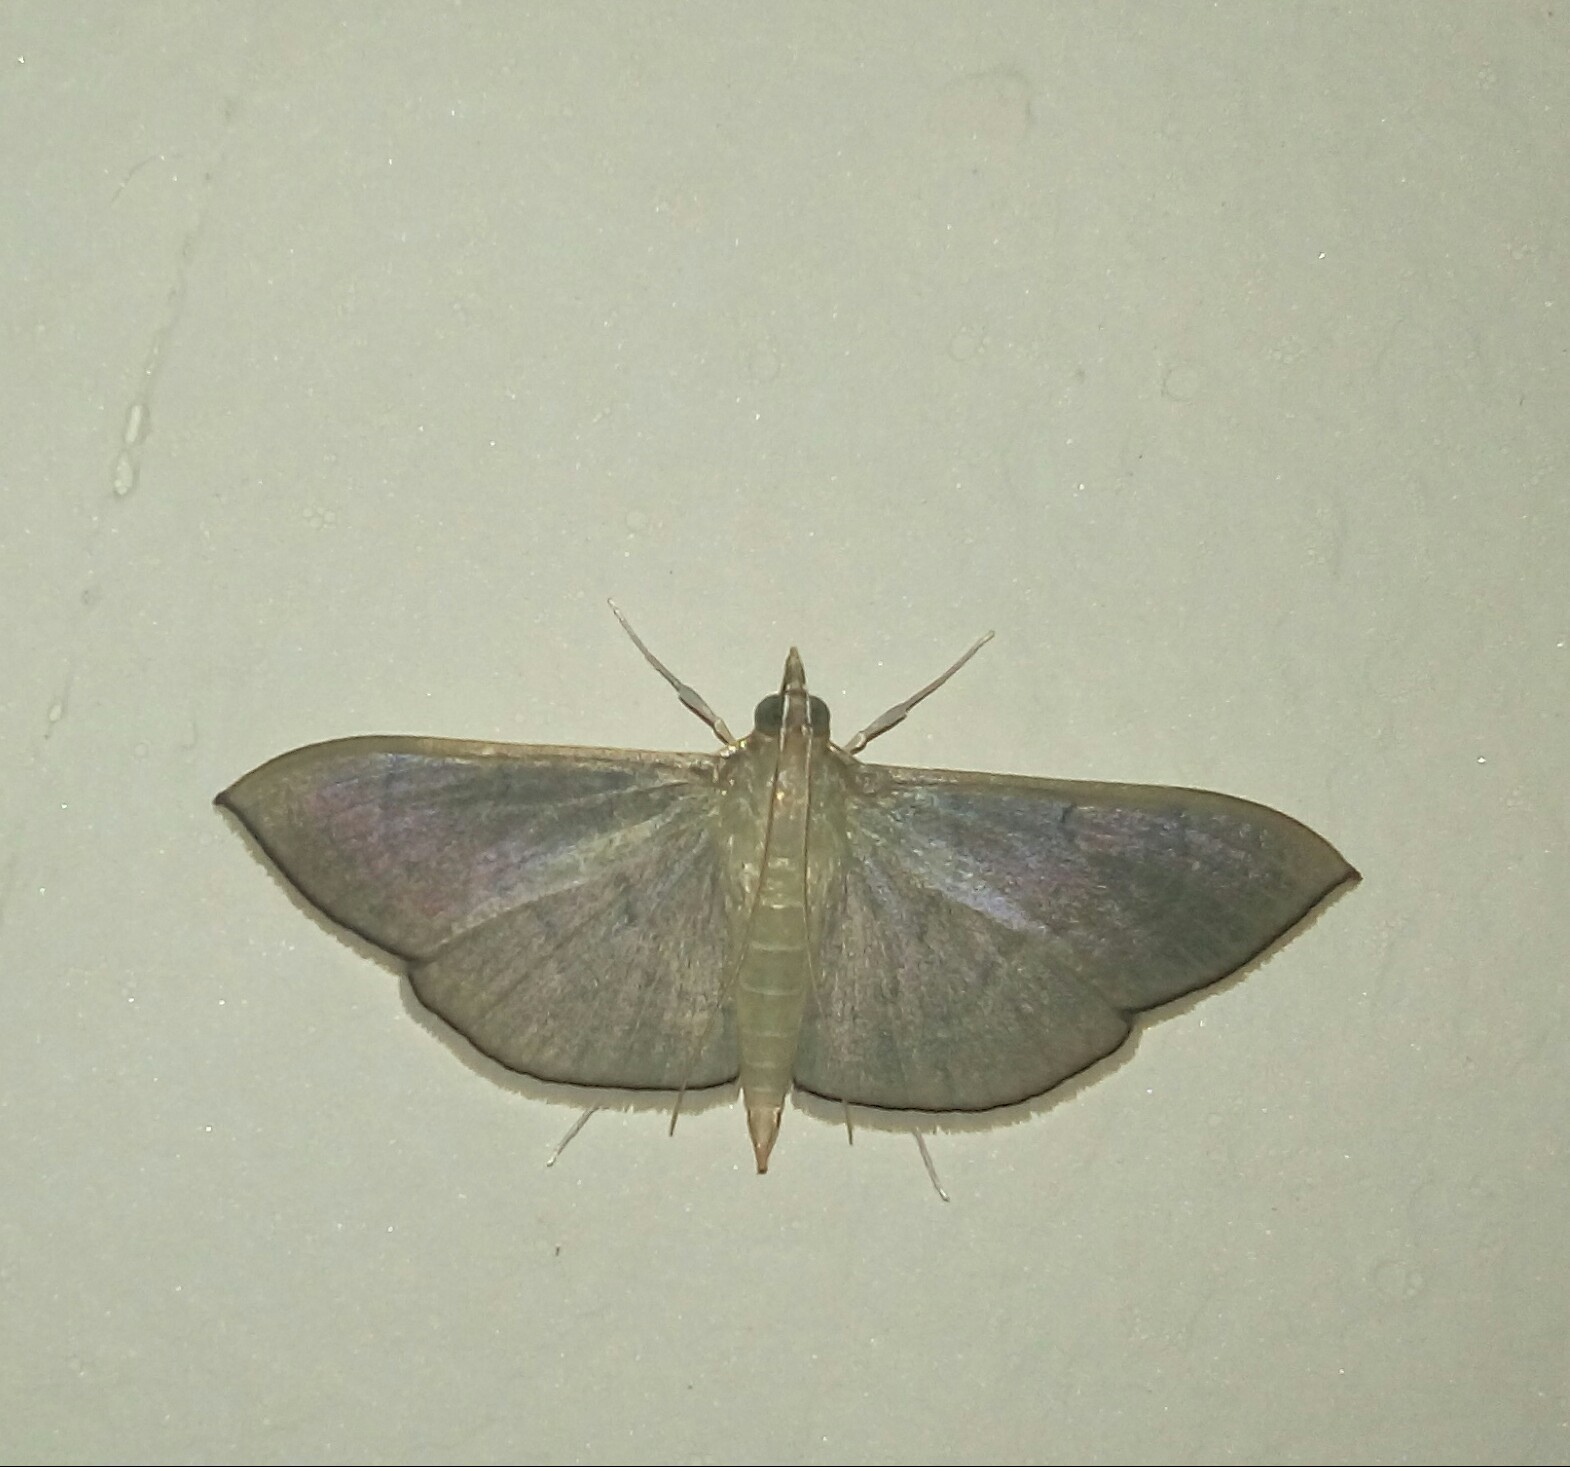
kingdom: Animalia
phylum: Arthropoda
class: Insecta
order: Lepidoptera
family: Crambidae
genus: Lamprophaia
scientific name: Lamprophaia ablactalis
